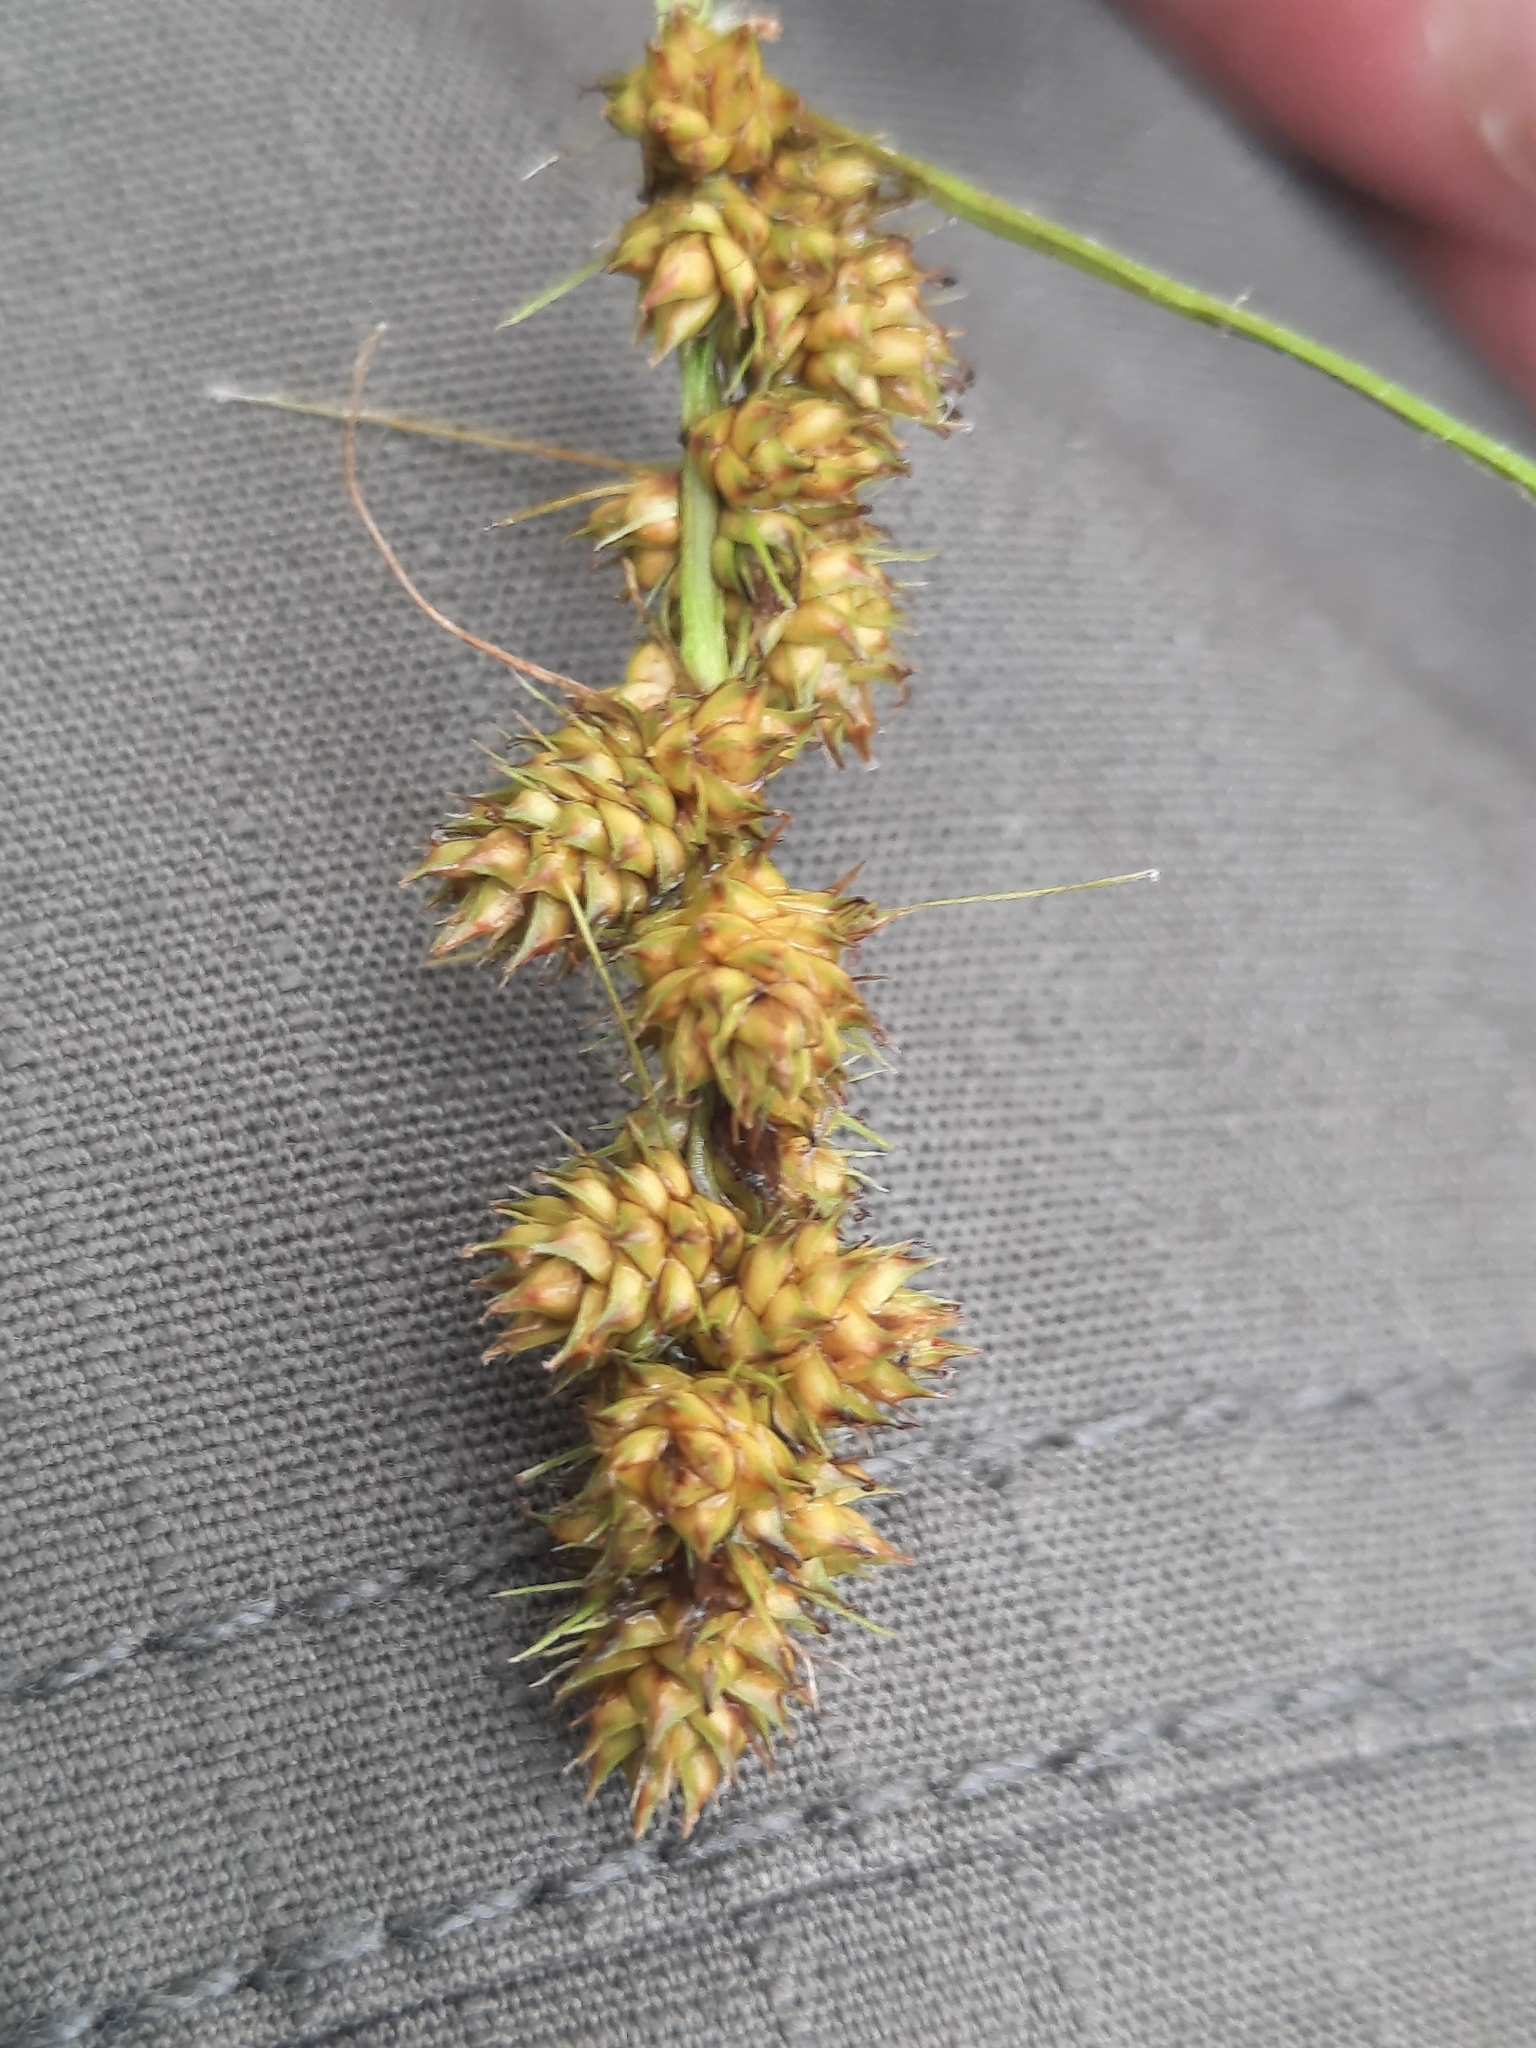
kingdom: Plantae
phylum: Tracheophyta
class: Liliopsida
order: Poales
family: Cyperaceae
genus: Carex
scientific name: Carex annectens
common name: Large fox sedge
